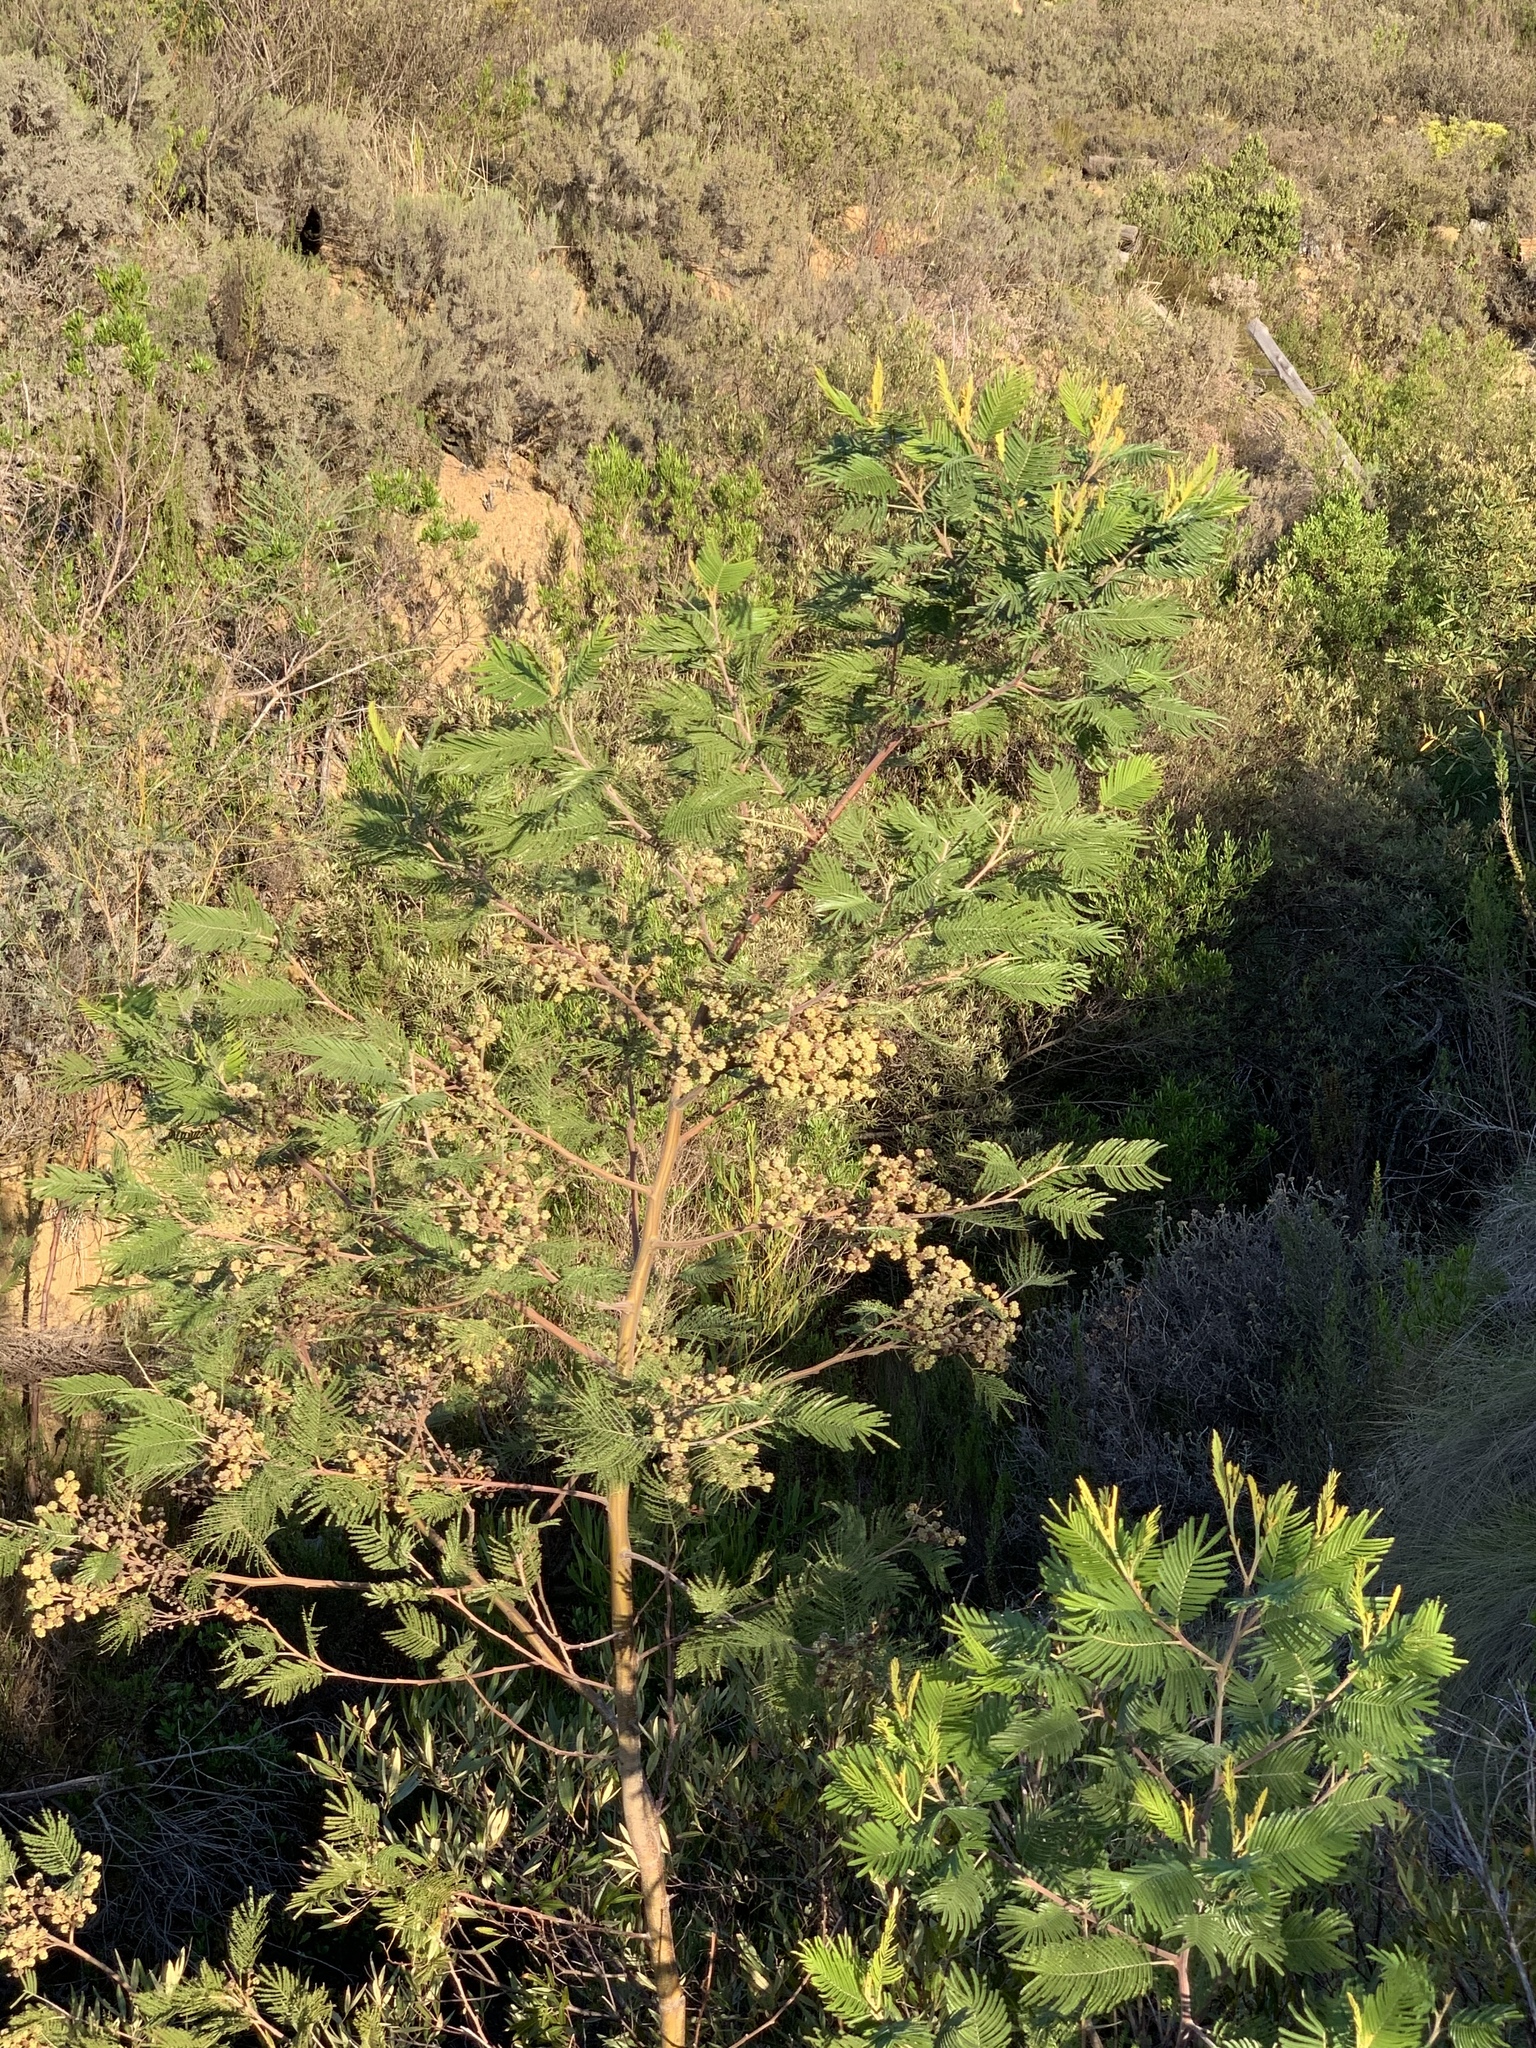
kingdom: Plantae
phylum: Tracheophyta
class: Magnoliopsida
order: Fabales
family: Fabaceae
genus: Acacia
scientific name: Acacia mearnsii
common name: Black wattle
